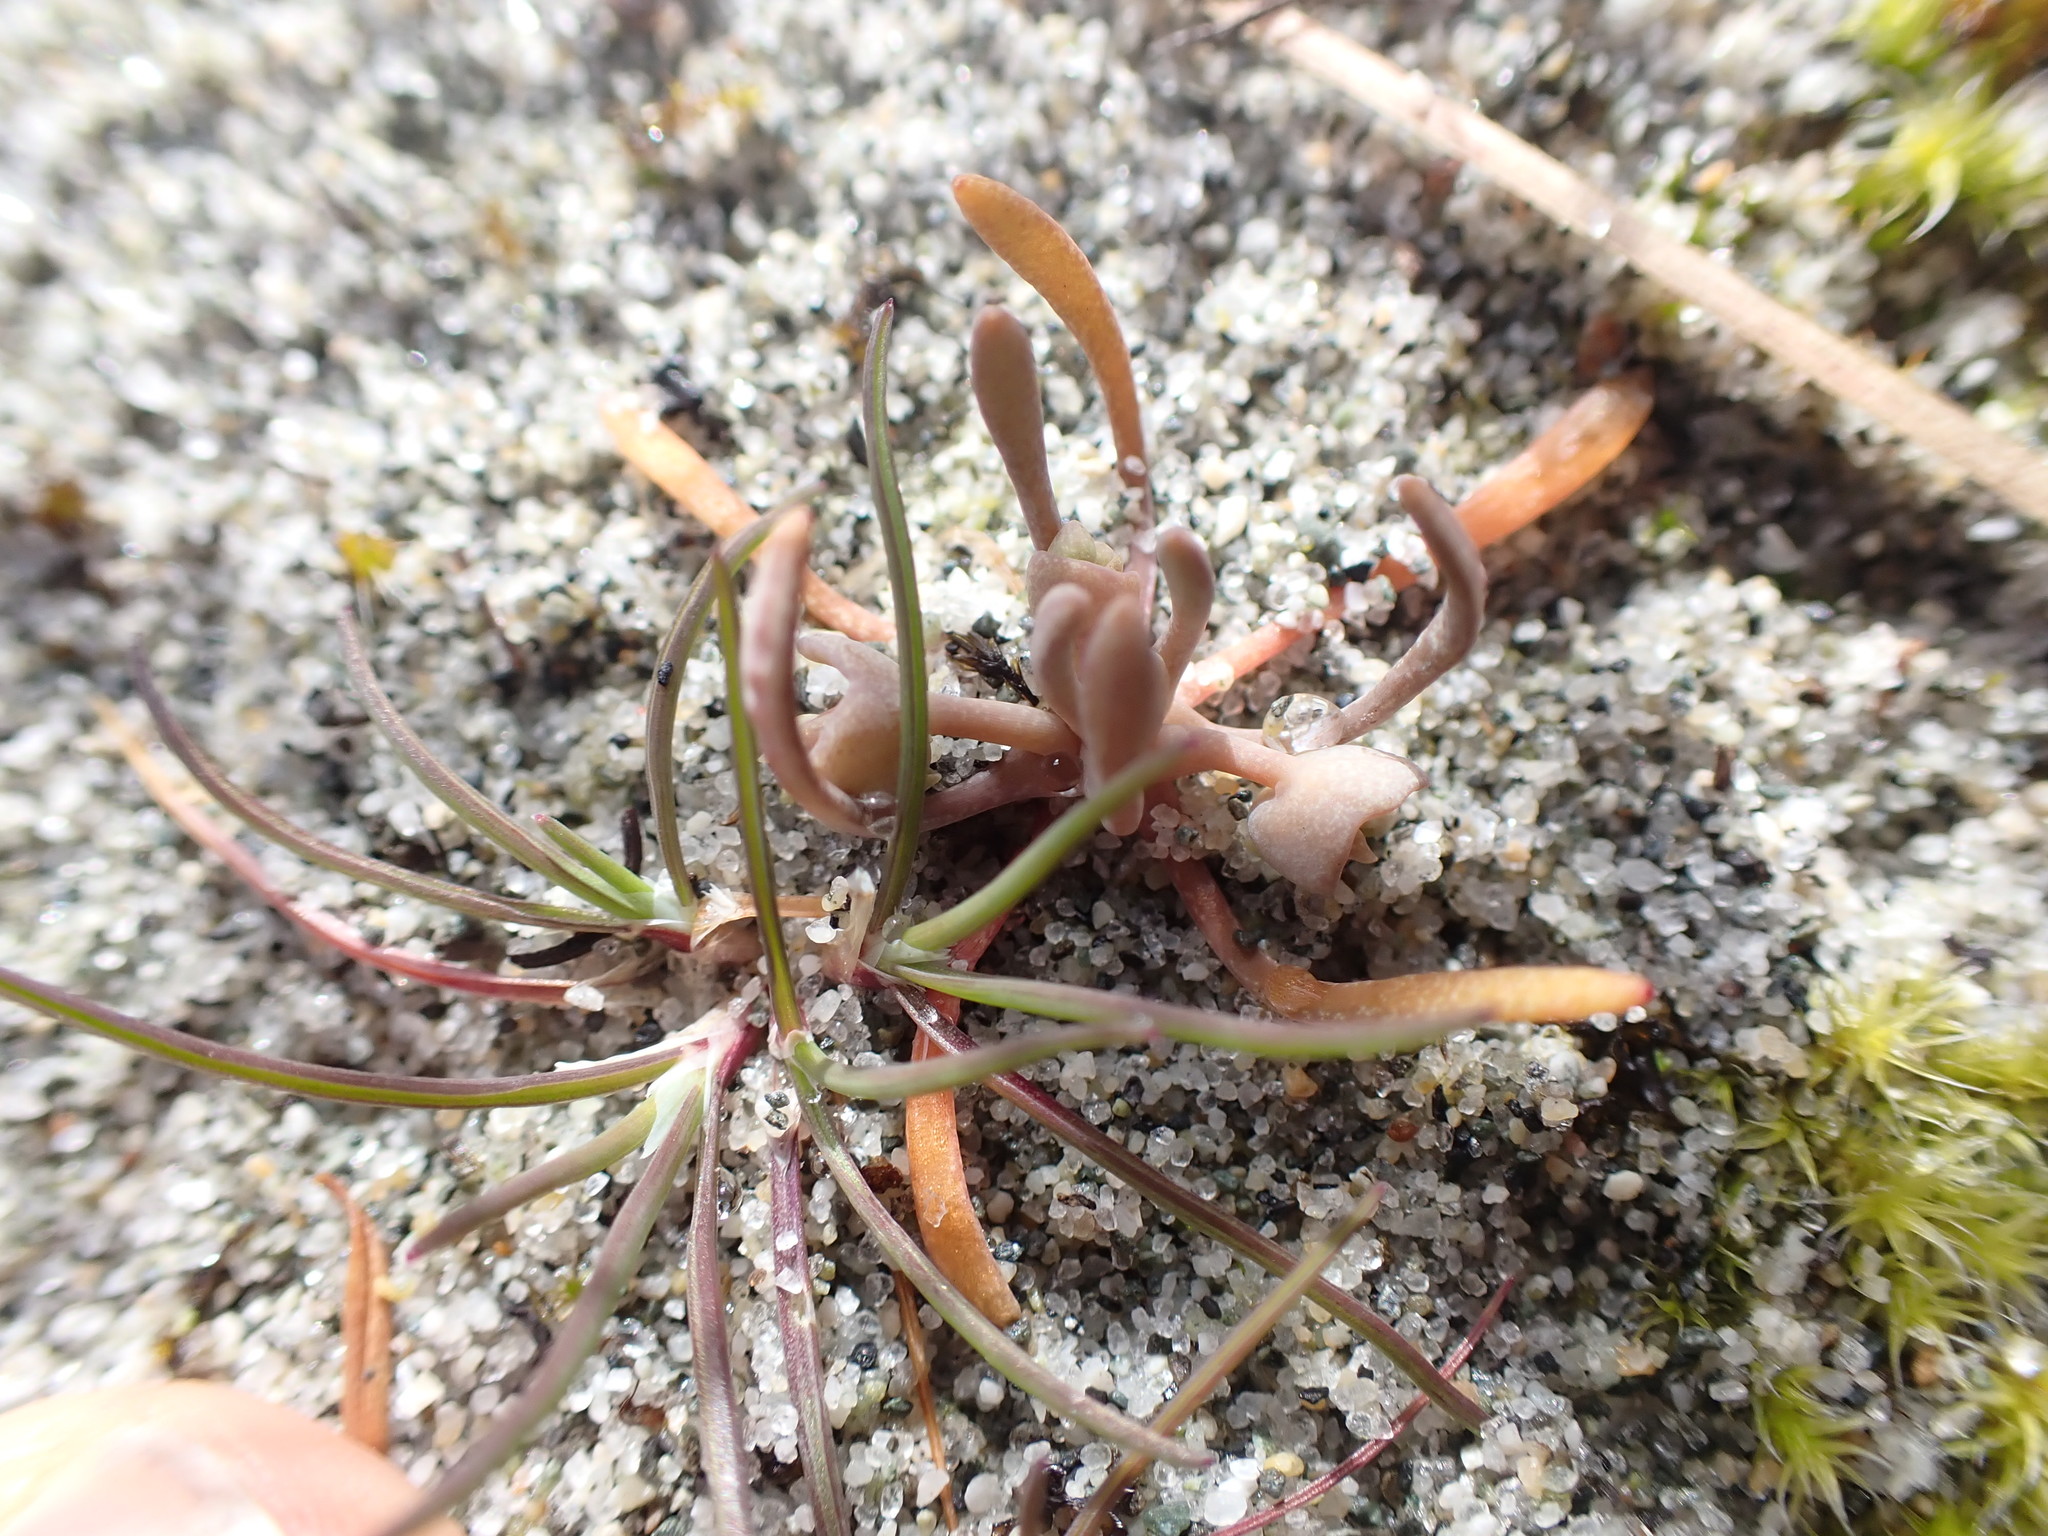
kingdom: Plantae
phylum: Tracheophyta
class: Magnoliopsida
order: Caryophyllales
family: Montiaceae
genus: Claytonia
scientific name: Claytonia exigua
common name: Pale spring beauty
